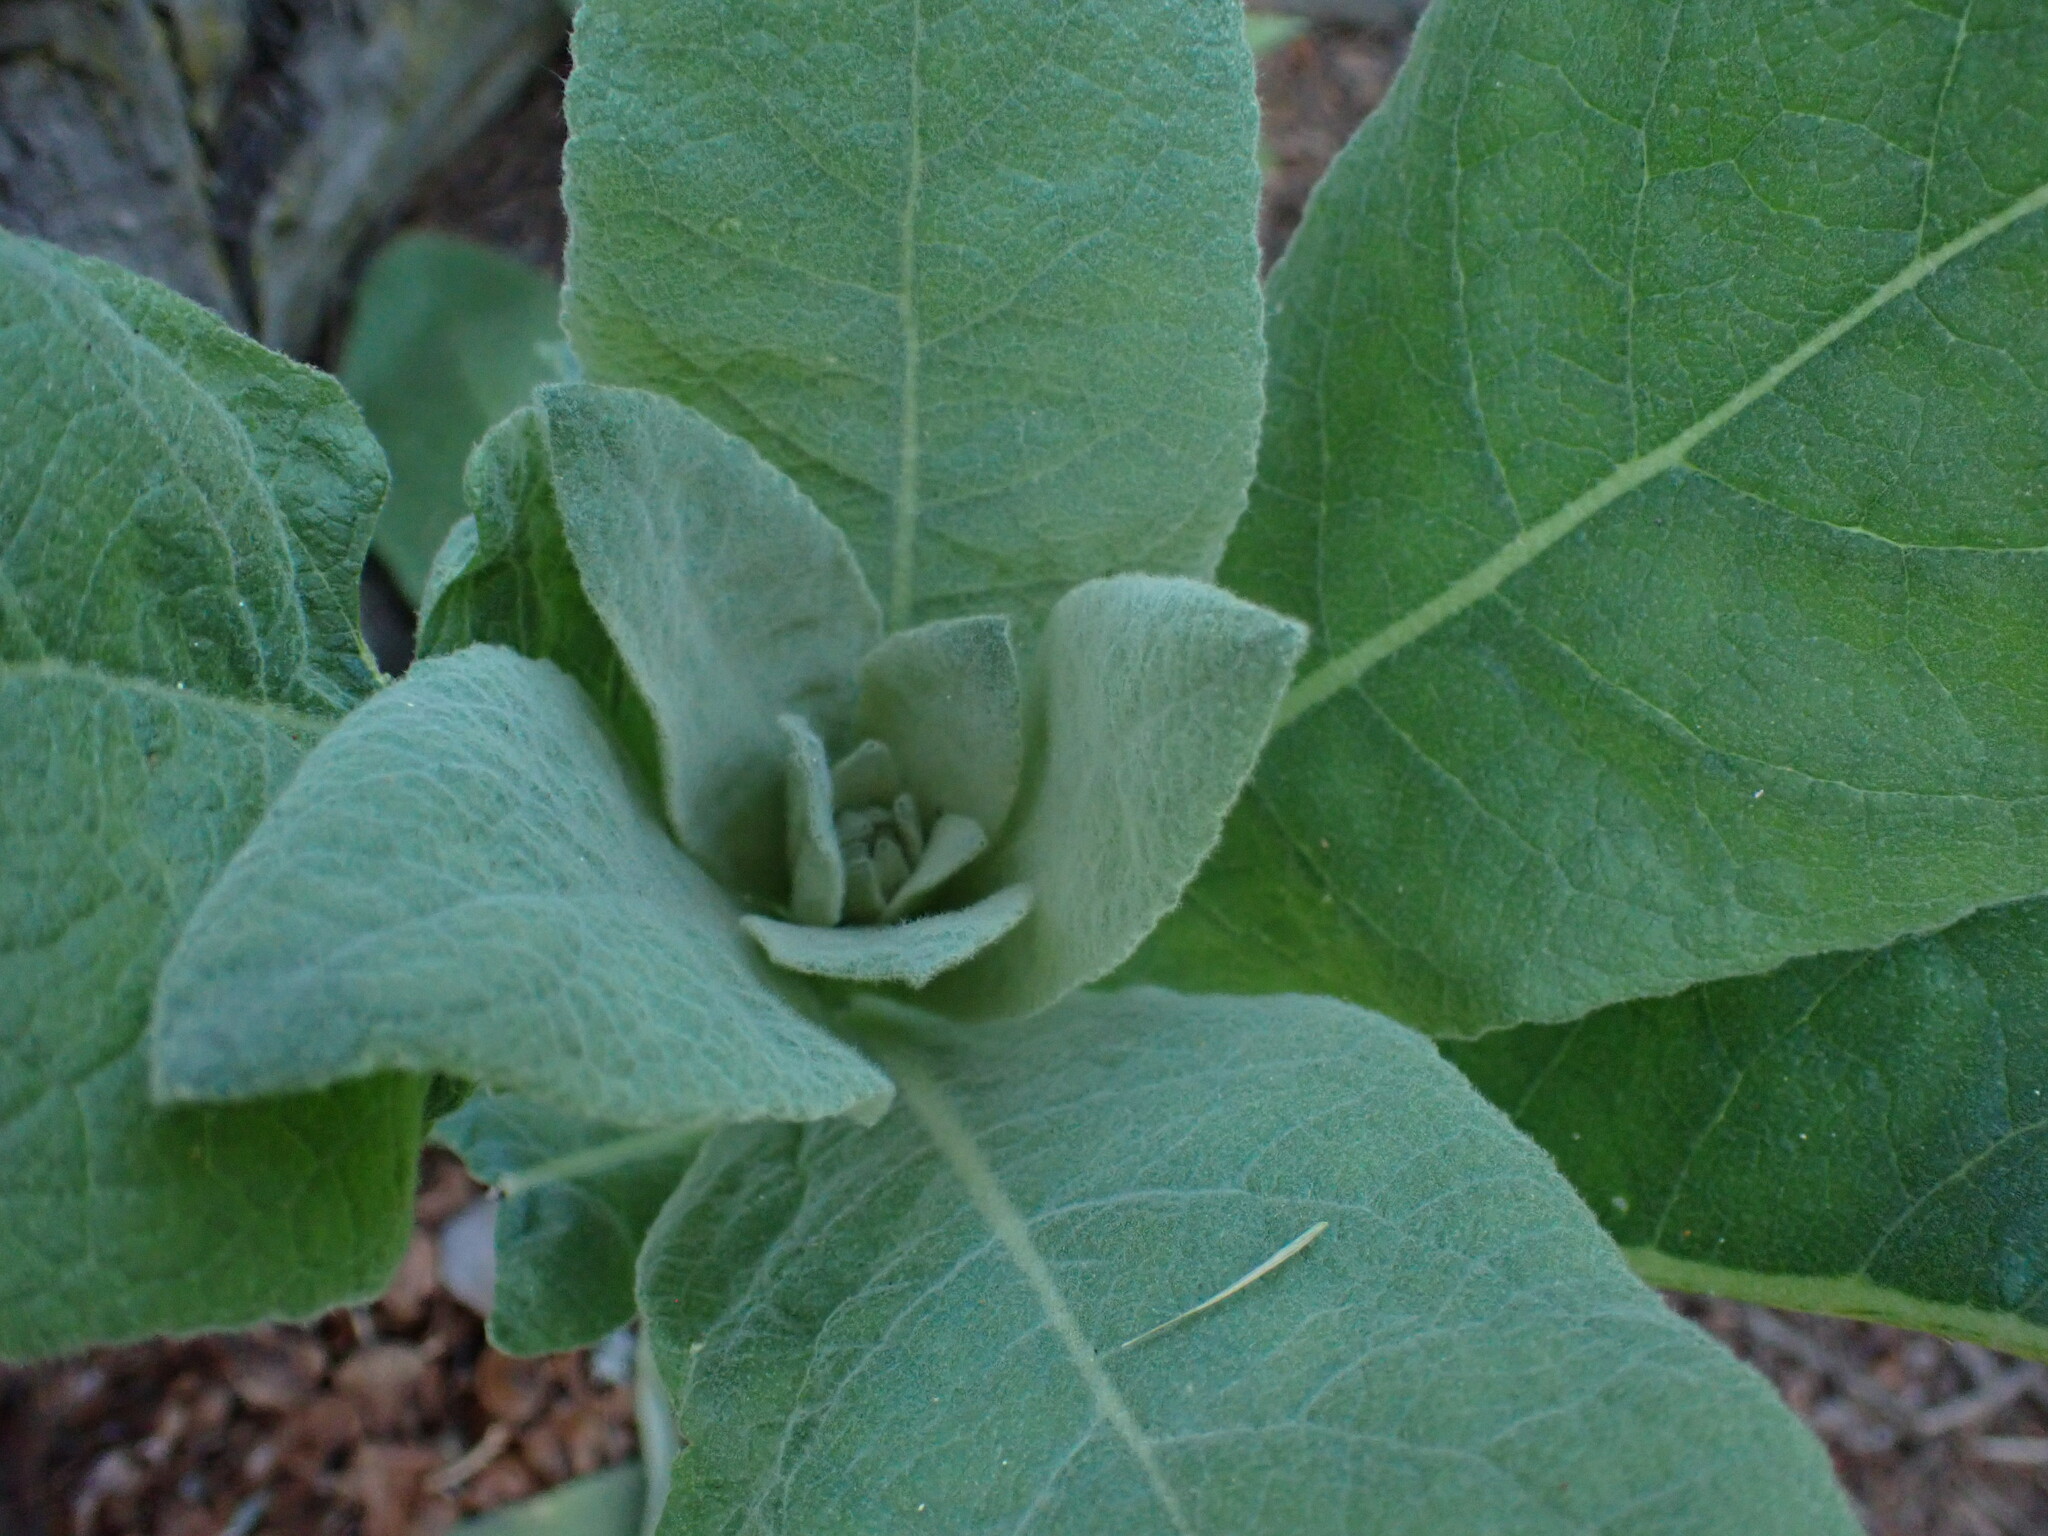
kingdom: Plantae
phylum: Tracheophyta
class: Magnoliopsida
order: Lamiales
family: Scrophulariaceae
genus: Verbascum
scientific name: Verbascum thapsus
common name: Common mullein
